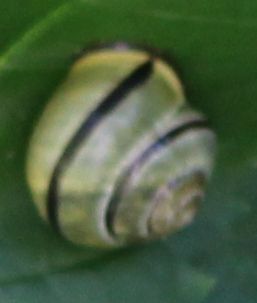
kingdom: Animalia
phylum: Mollusca
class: Gastropoda
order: Stylommatophora
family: Helicidae
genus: Cepaea
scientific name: Cepaea nemoralis
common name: Grovesnail
